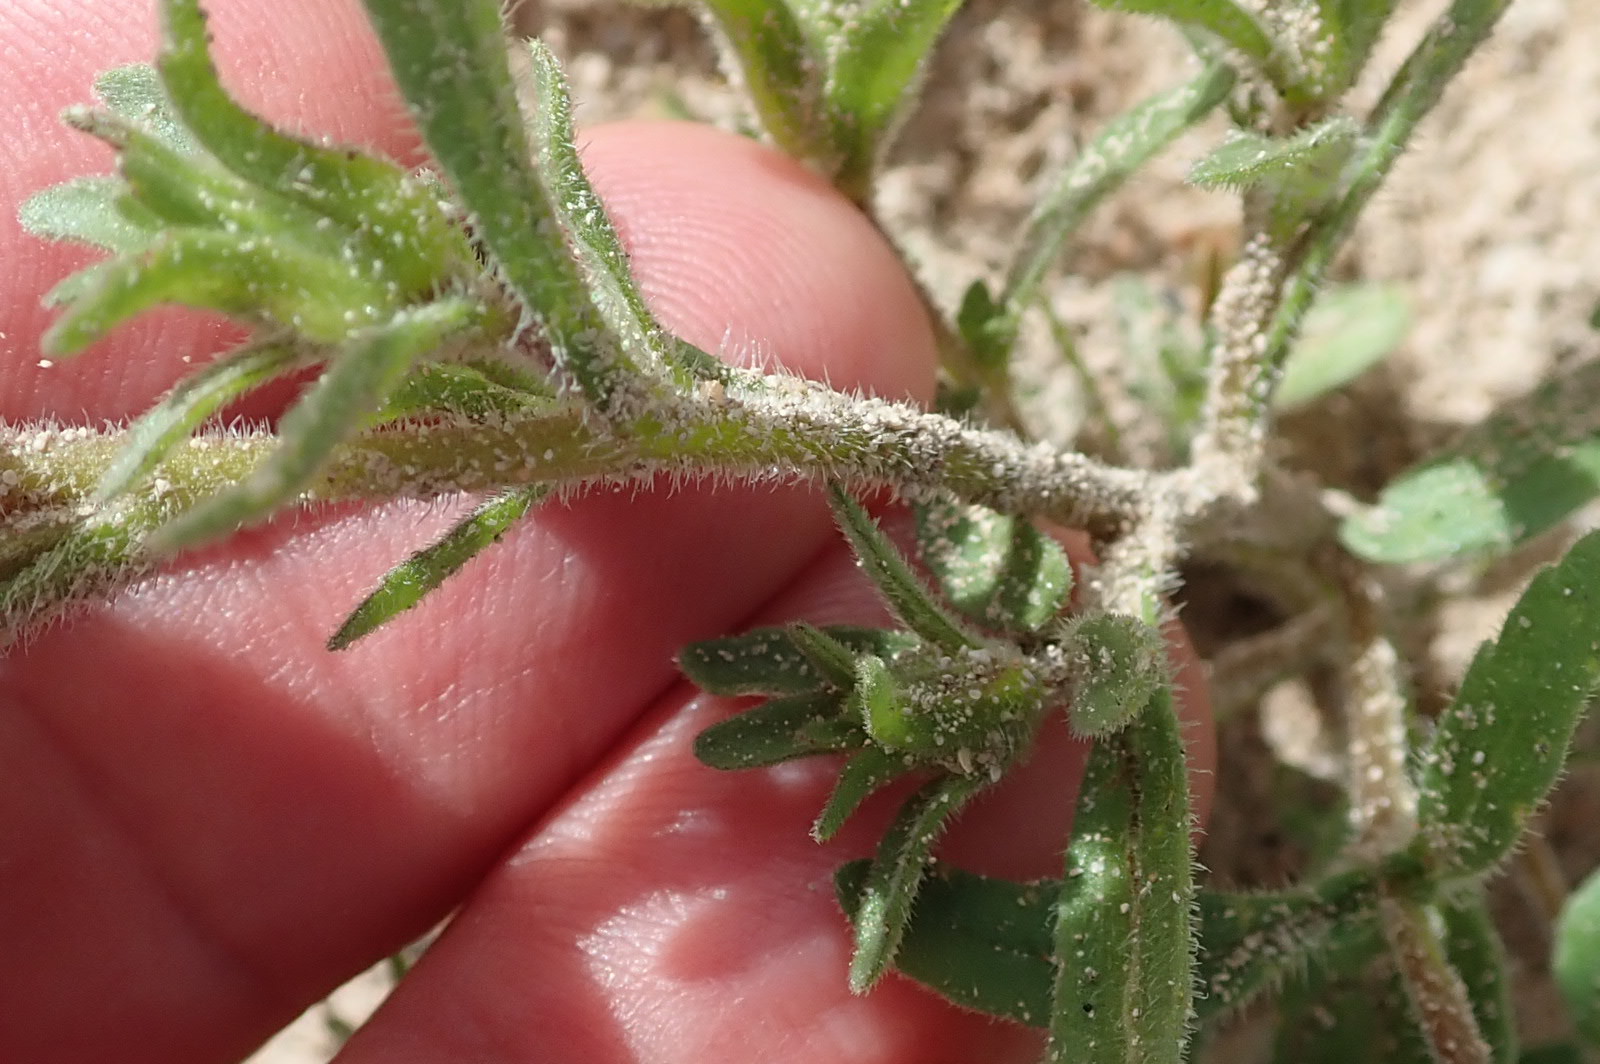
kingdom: Plantae
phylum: Tracheophyta
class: Magnoliopsida
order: Lamiales
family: Scrophulariaceae
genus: Zaluzianskya
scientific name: Zaluzianskya parviflora
